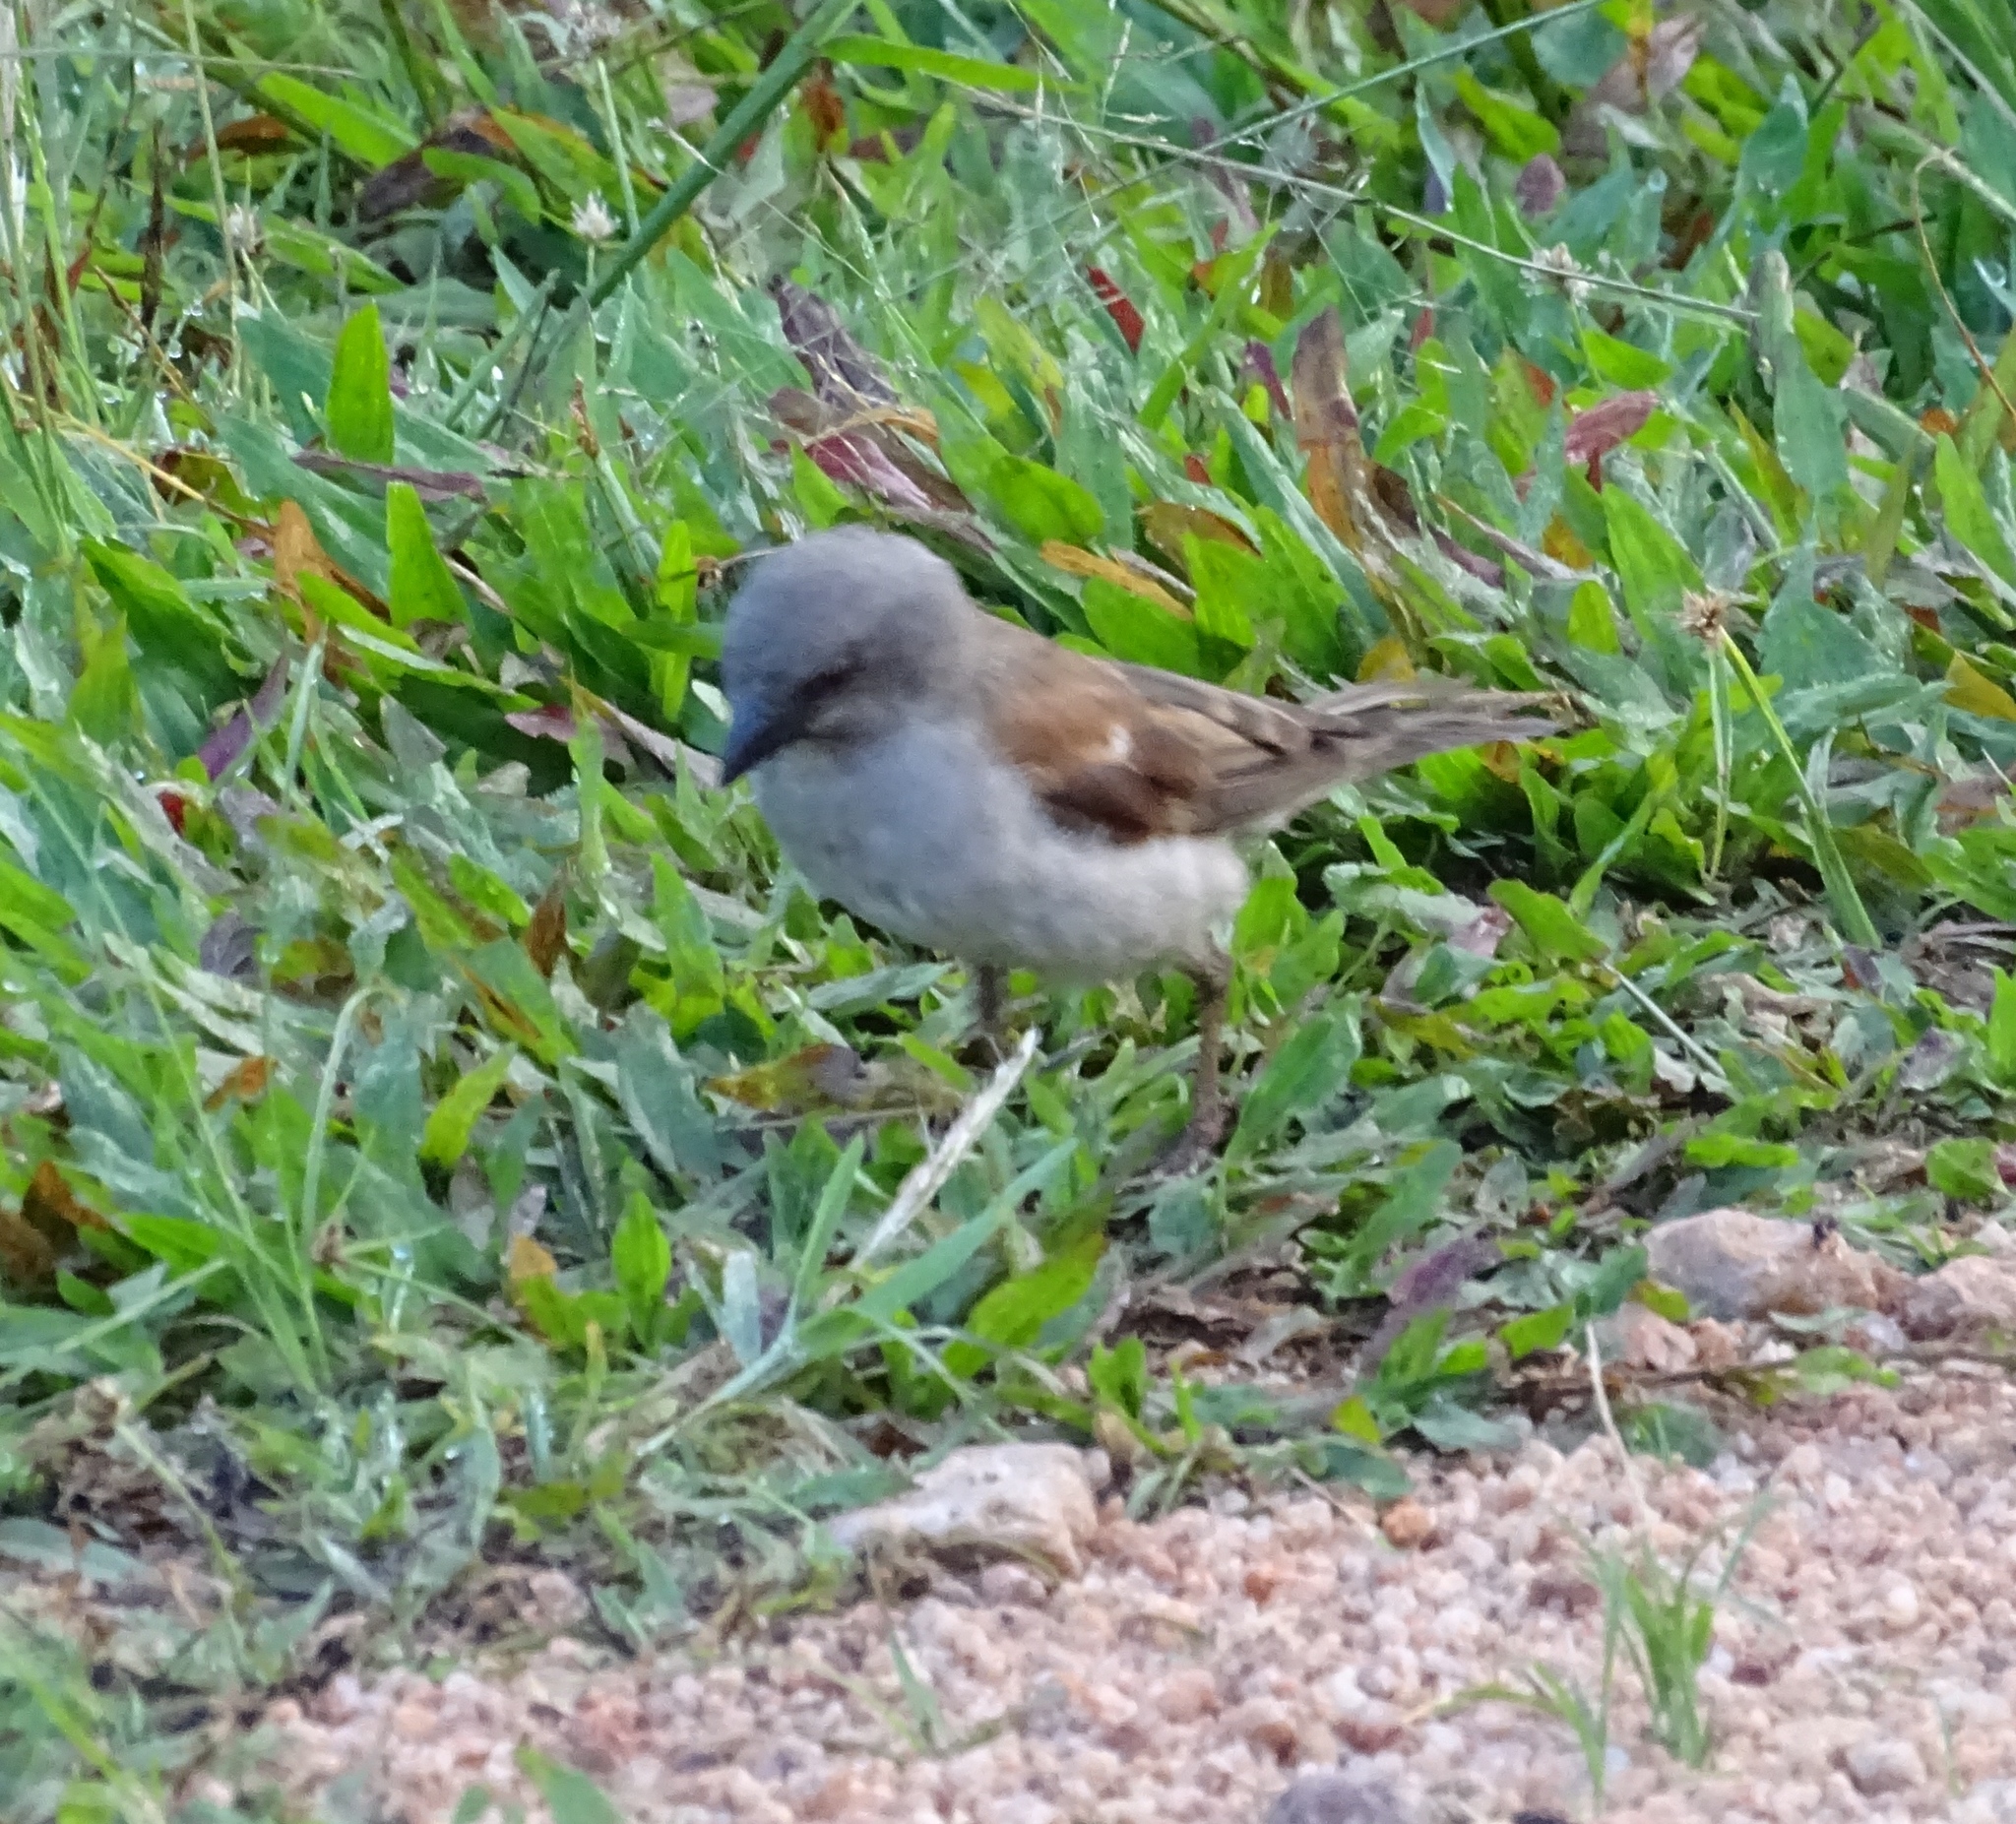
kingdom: Animalia
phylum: Chordata
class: Aves
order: Passeriformes
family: Passeridae
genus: Passer
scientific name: Passer griseus
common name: Northern grey-headed sparrow
